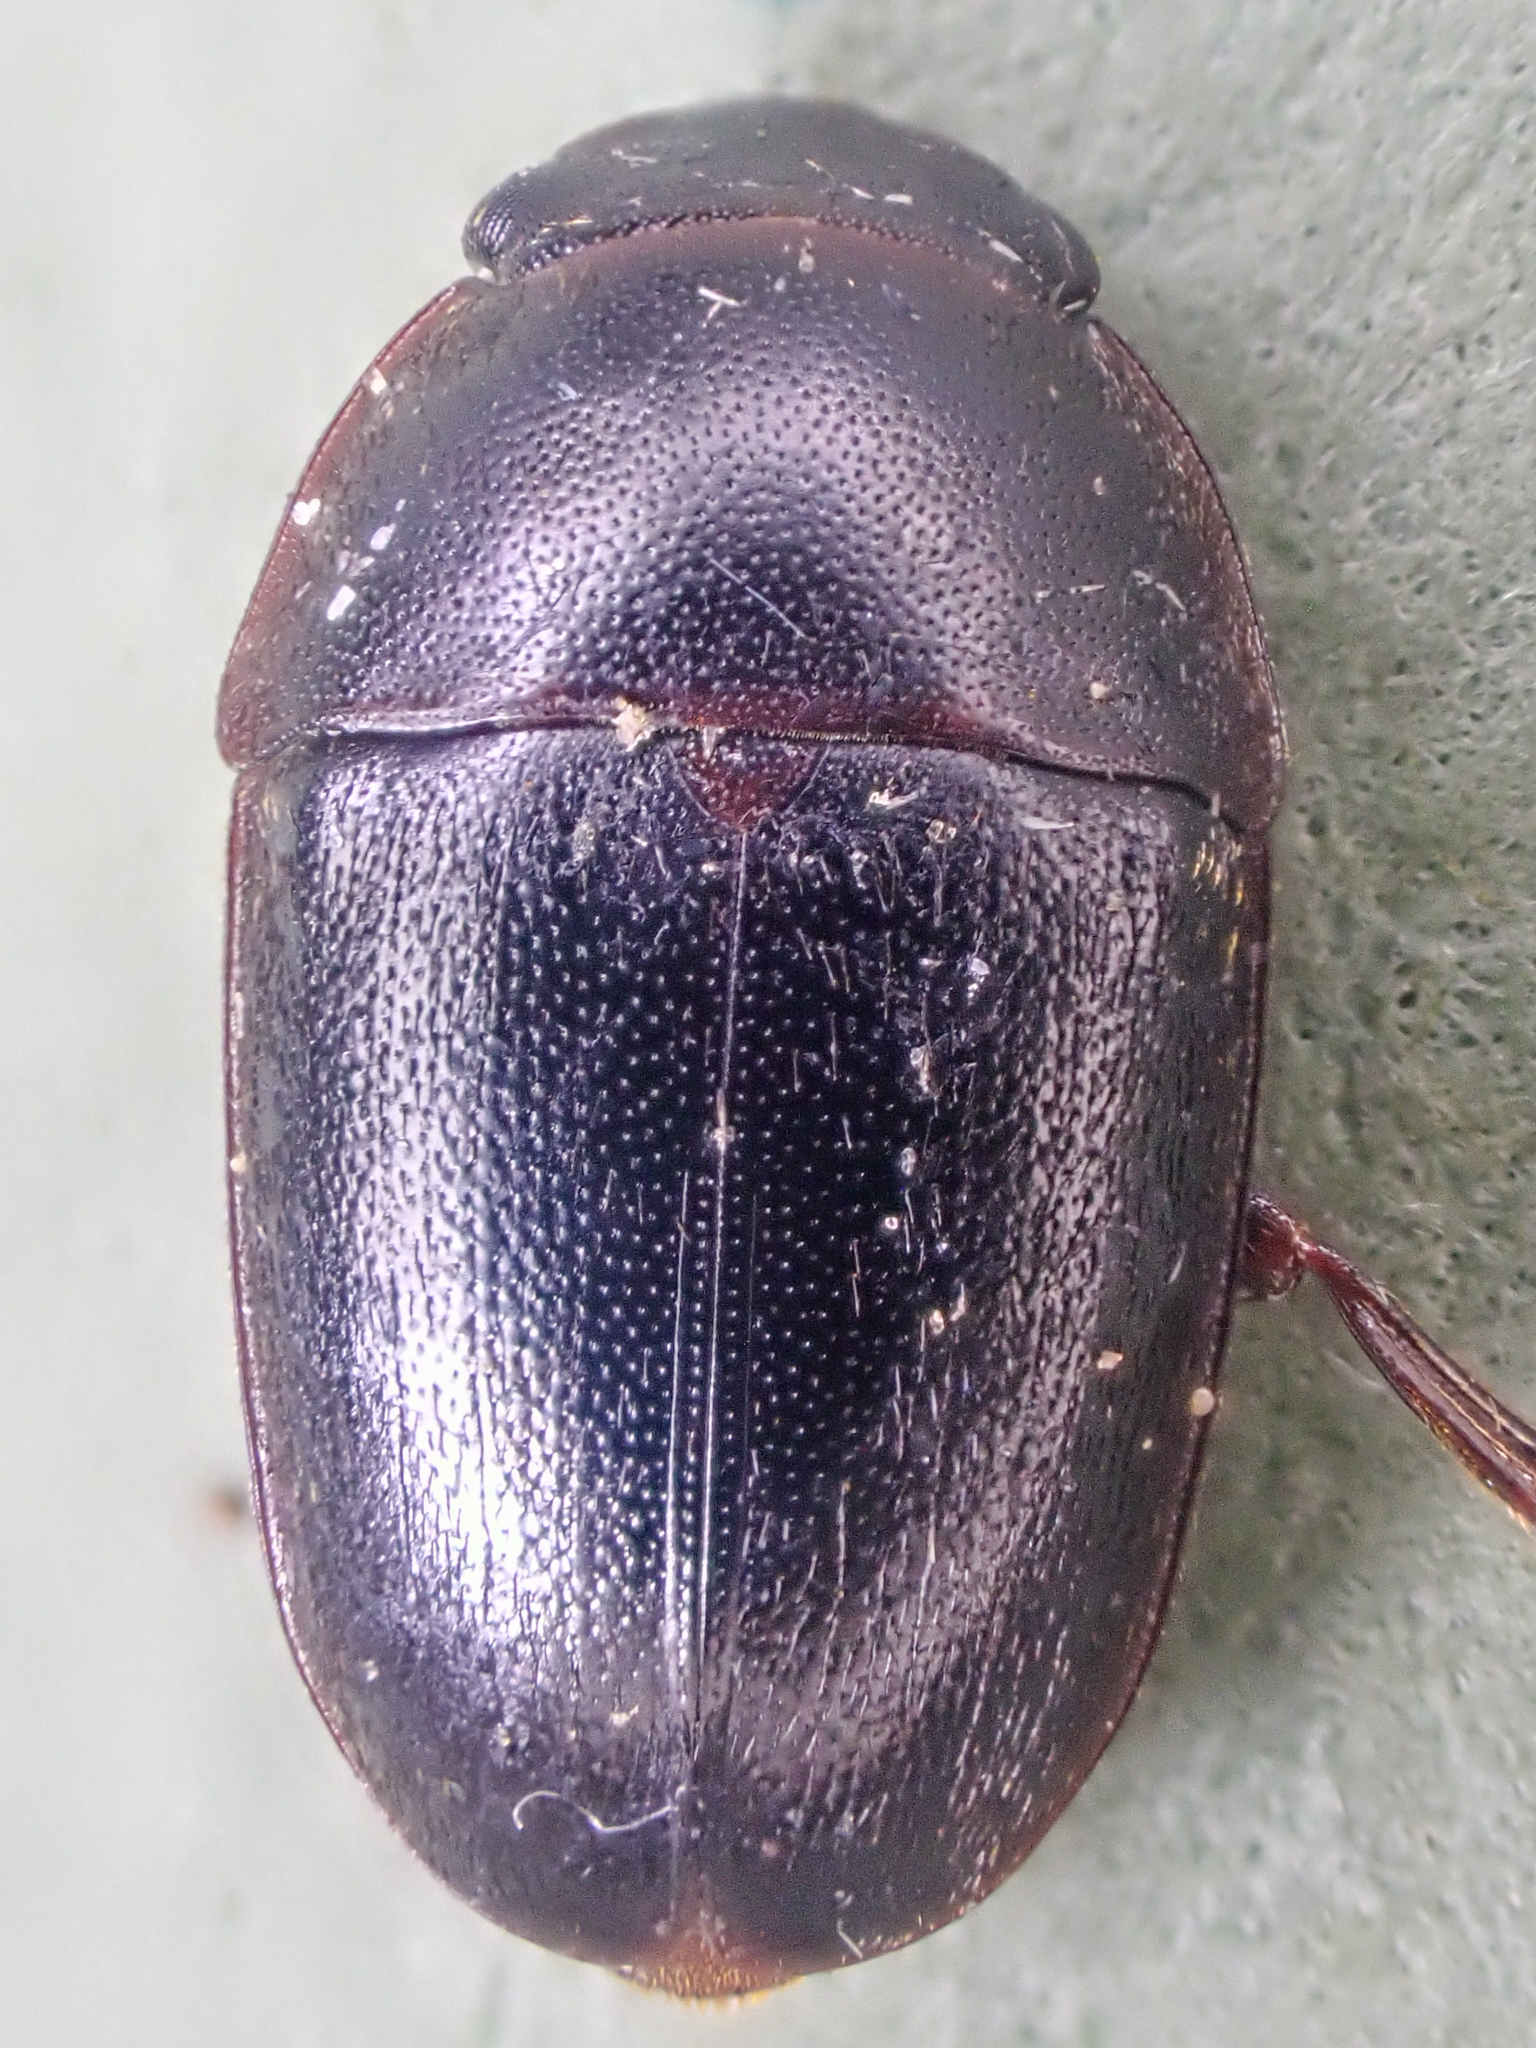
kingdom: Animalia
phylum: Arthropoda
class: Insecta
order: Coleoptera
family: Nitidulidae
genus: Cryptarcha
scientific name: Cryptarcha ampla
